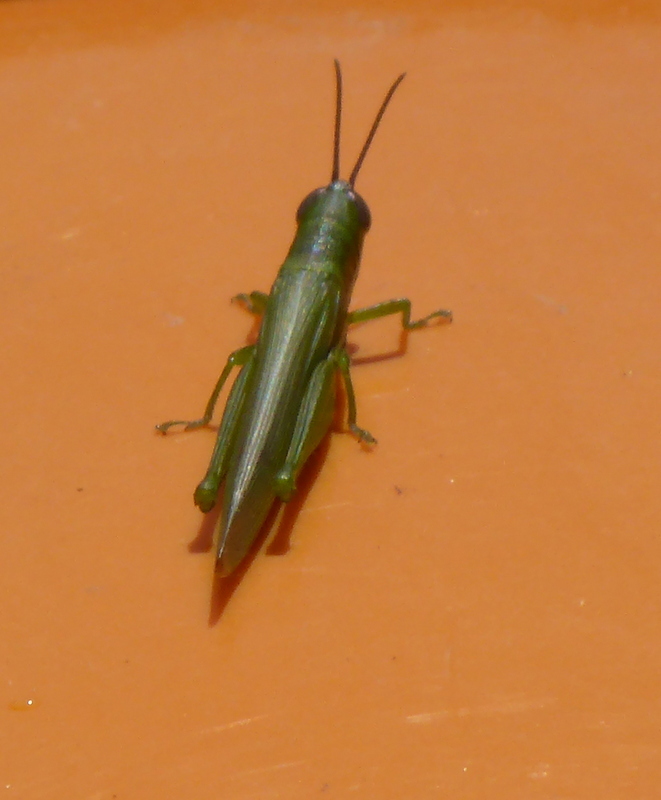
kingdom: Animalia
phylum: Arthropoda
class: Insecta
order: Orthoptera
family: Acrididae
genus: Stenacris
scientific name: Stenacris vitreipennis
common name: Glassy-winged toothpick grasshopper
